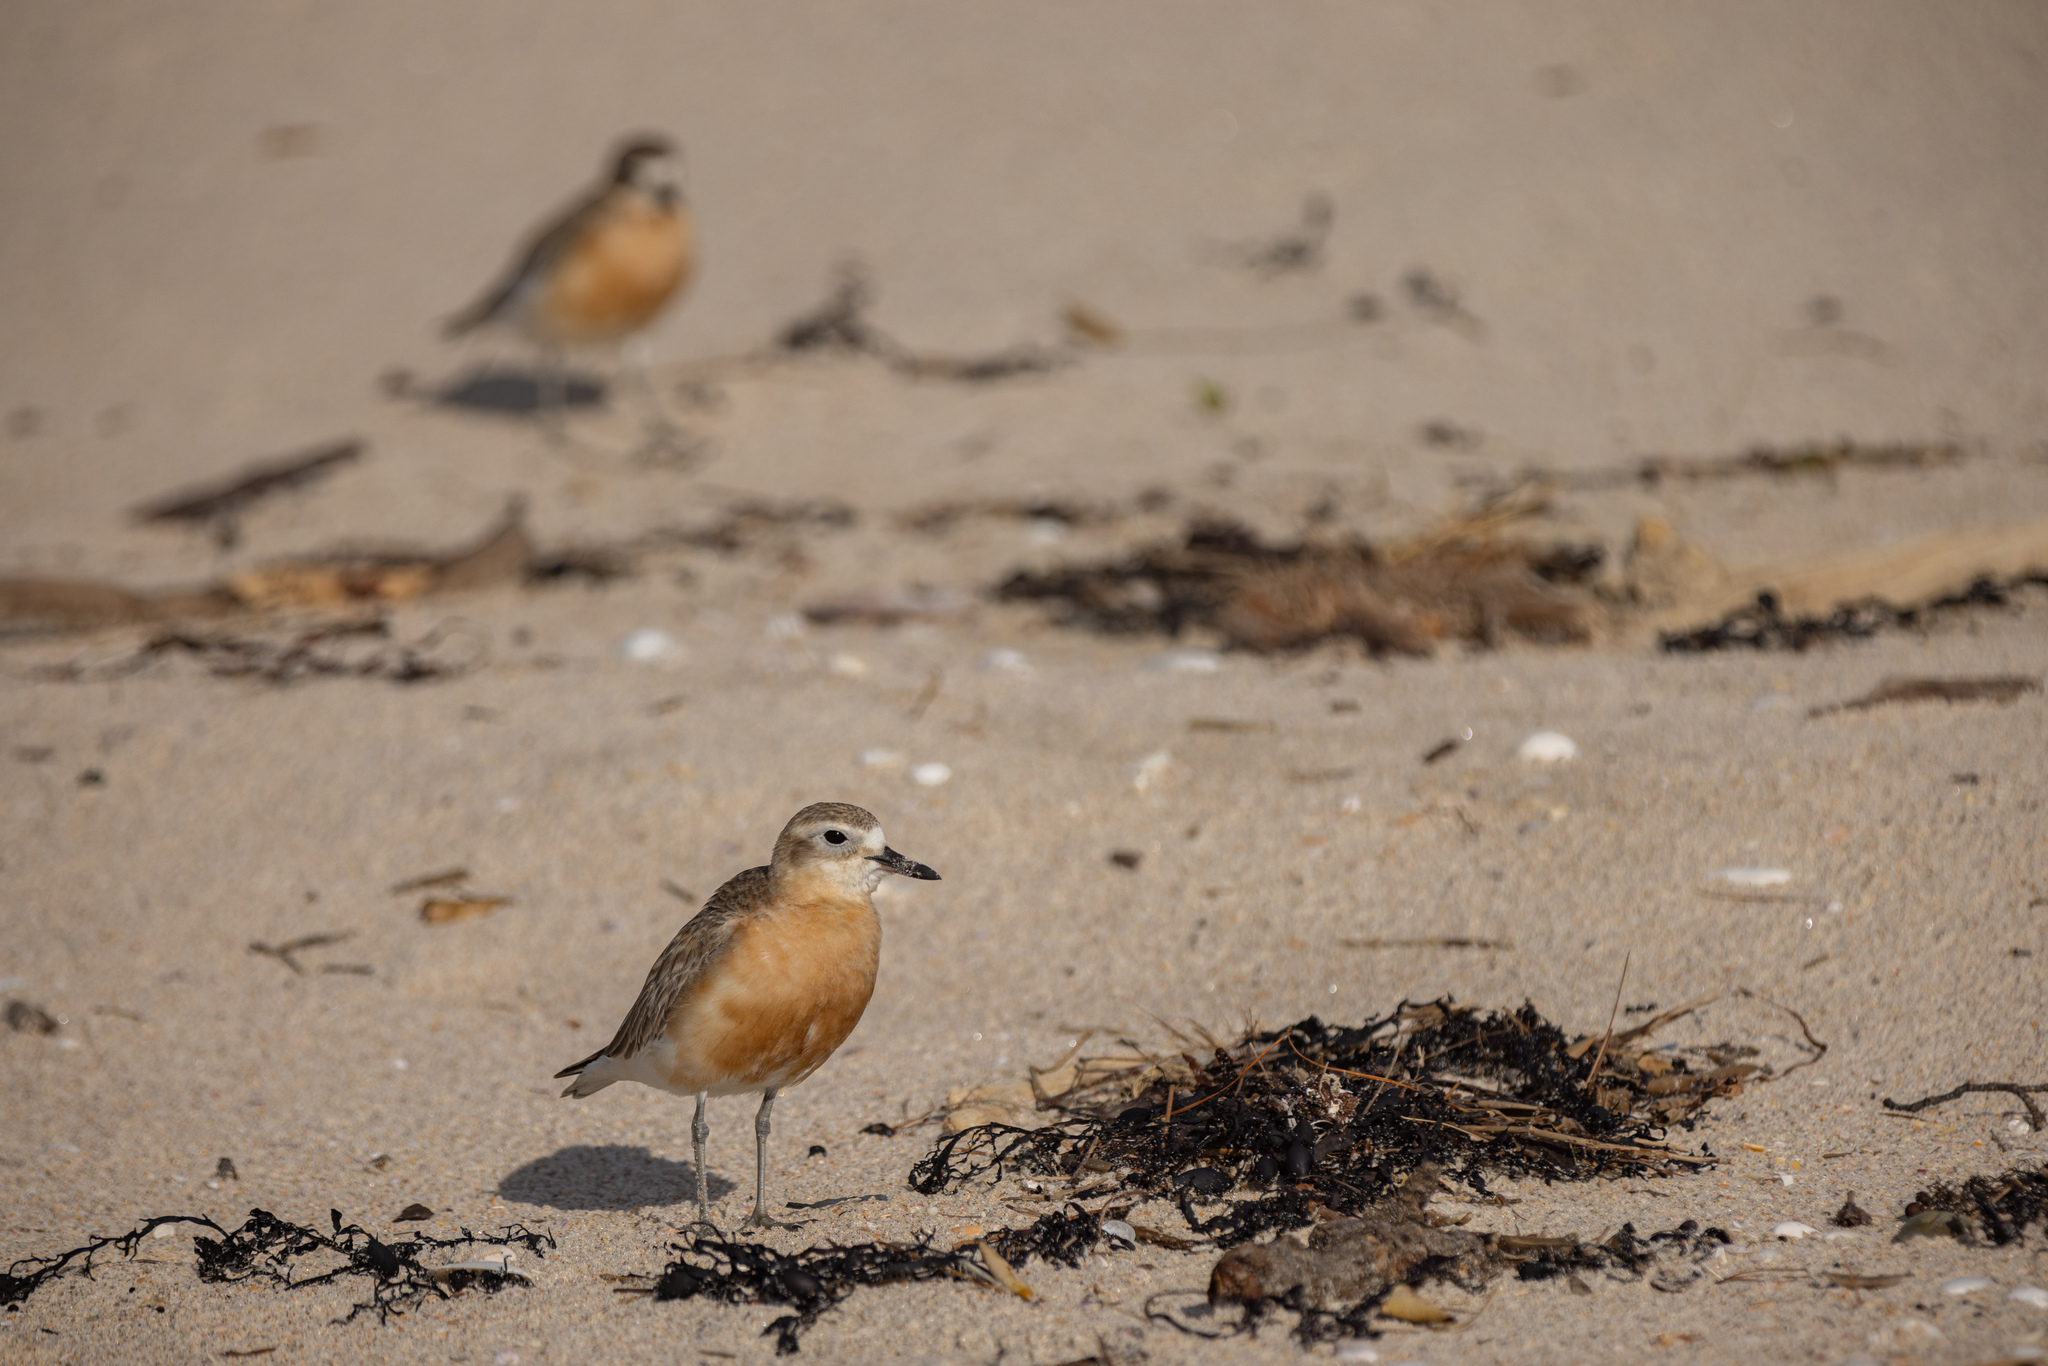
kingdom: Animalia
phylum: Chordata
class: Aves
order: Charadriiformes
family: Charadriidae
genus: Anarhynchus
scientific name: Anarhynchus
